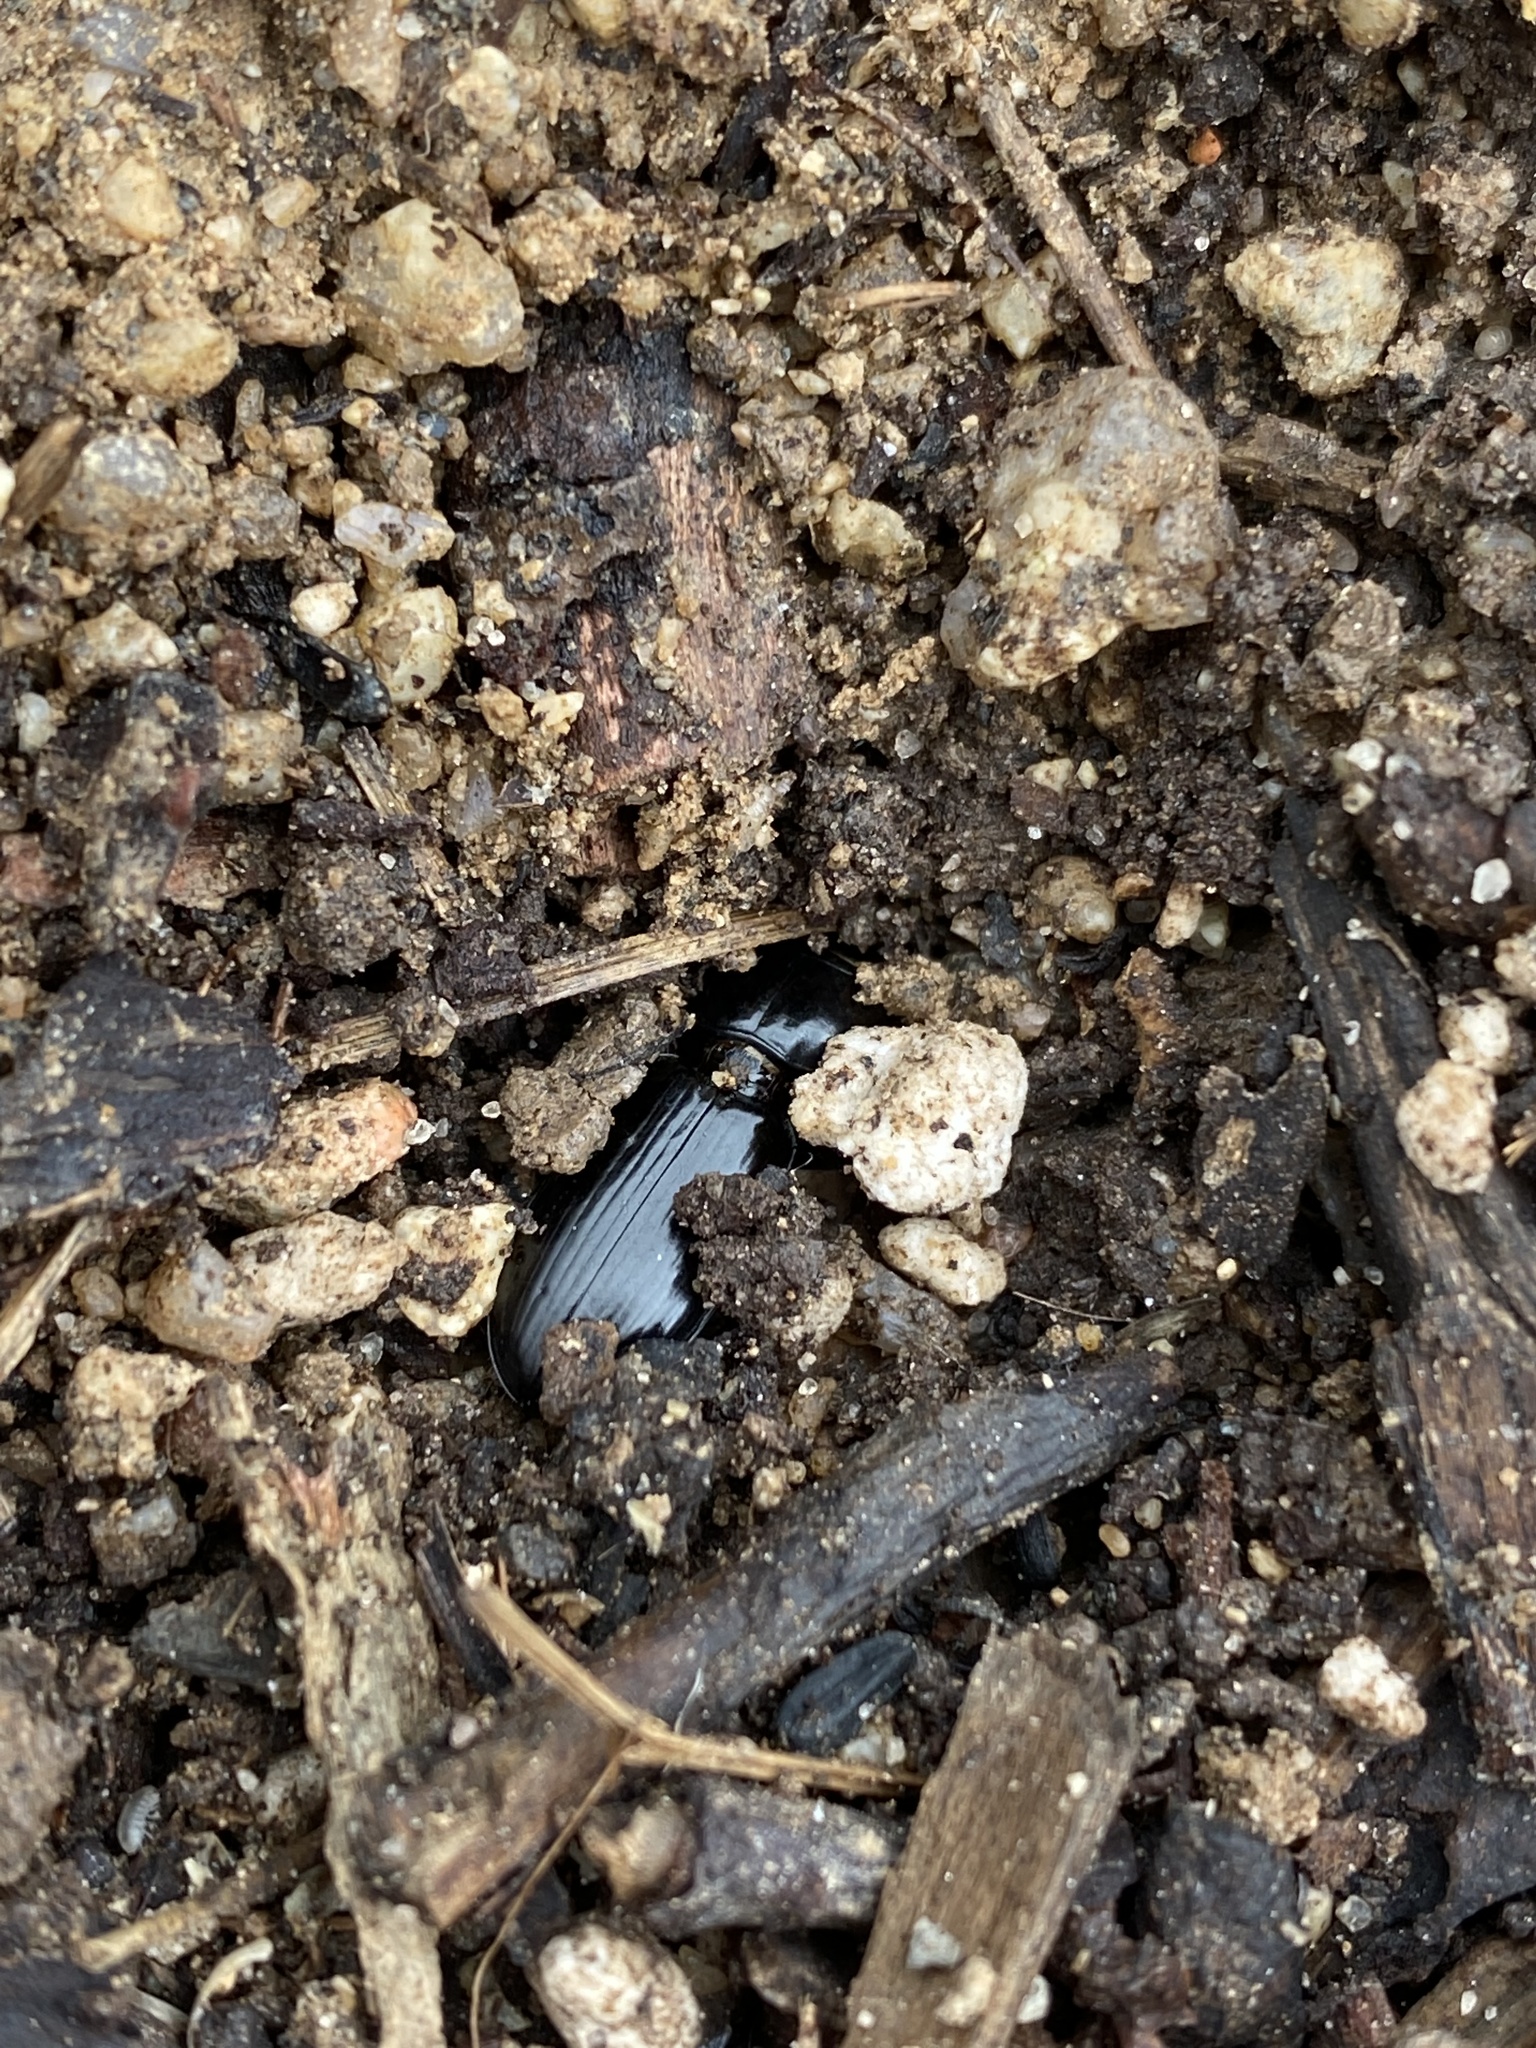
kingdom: Animalia
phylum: Arthropoda
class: Insecta
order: Coleoptera
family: Carabidae
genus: Scarites
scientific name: Scarites
